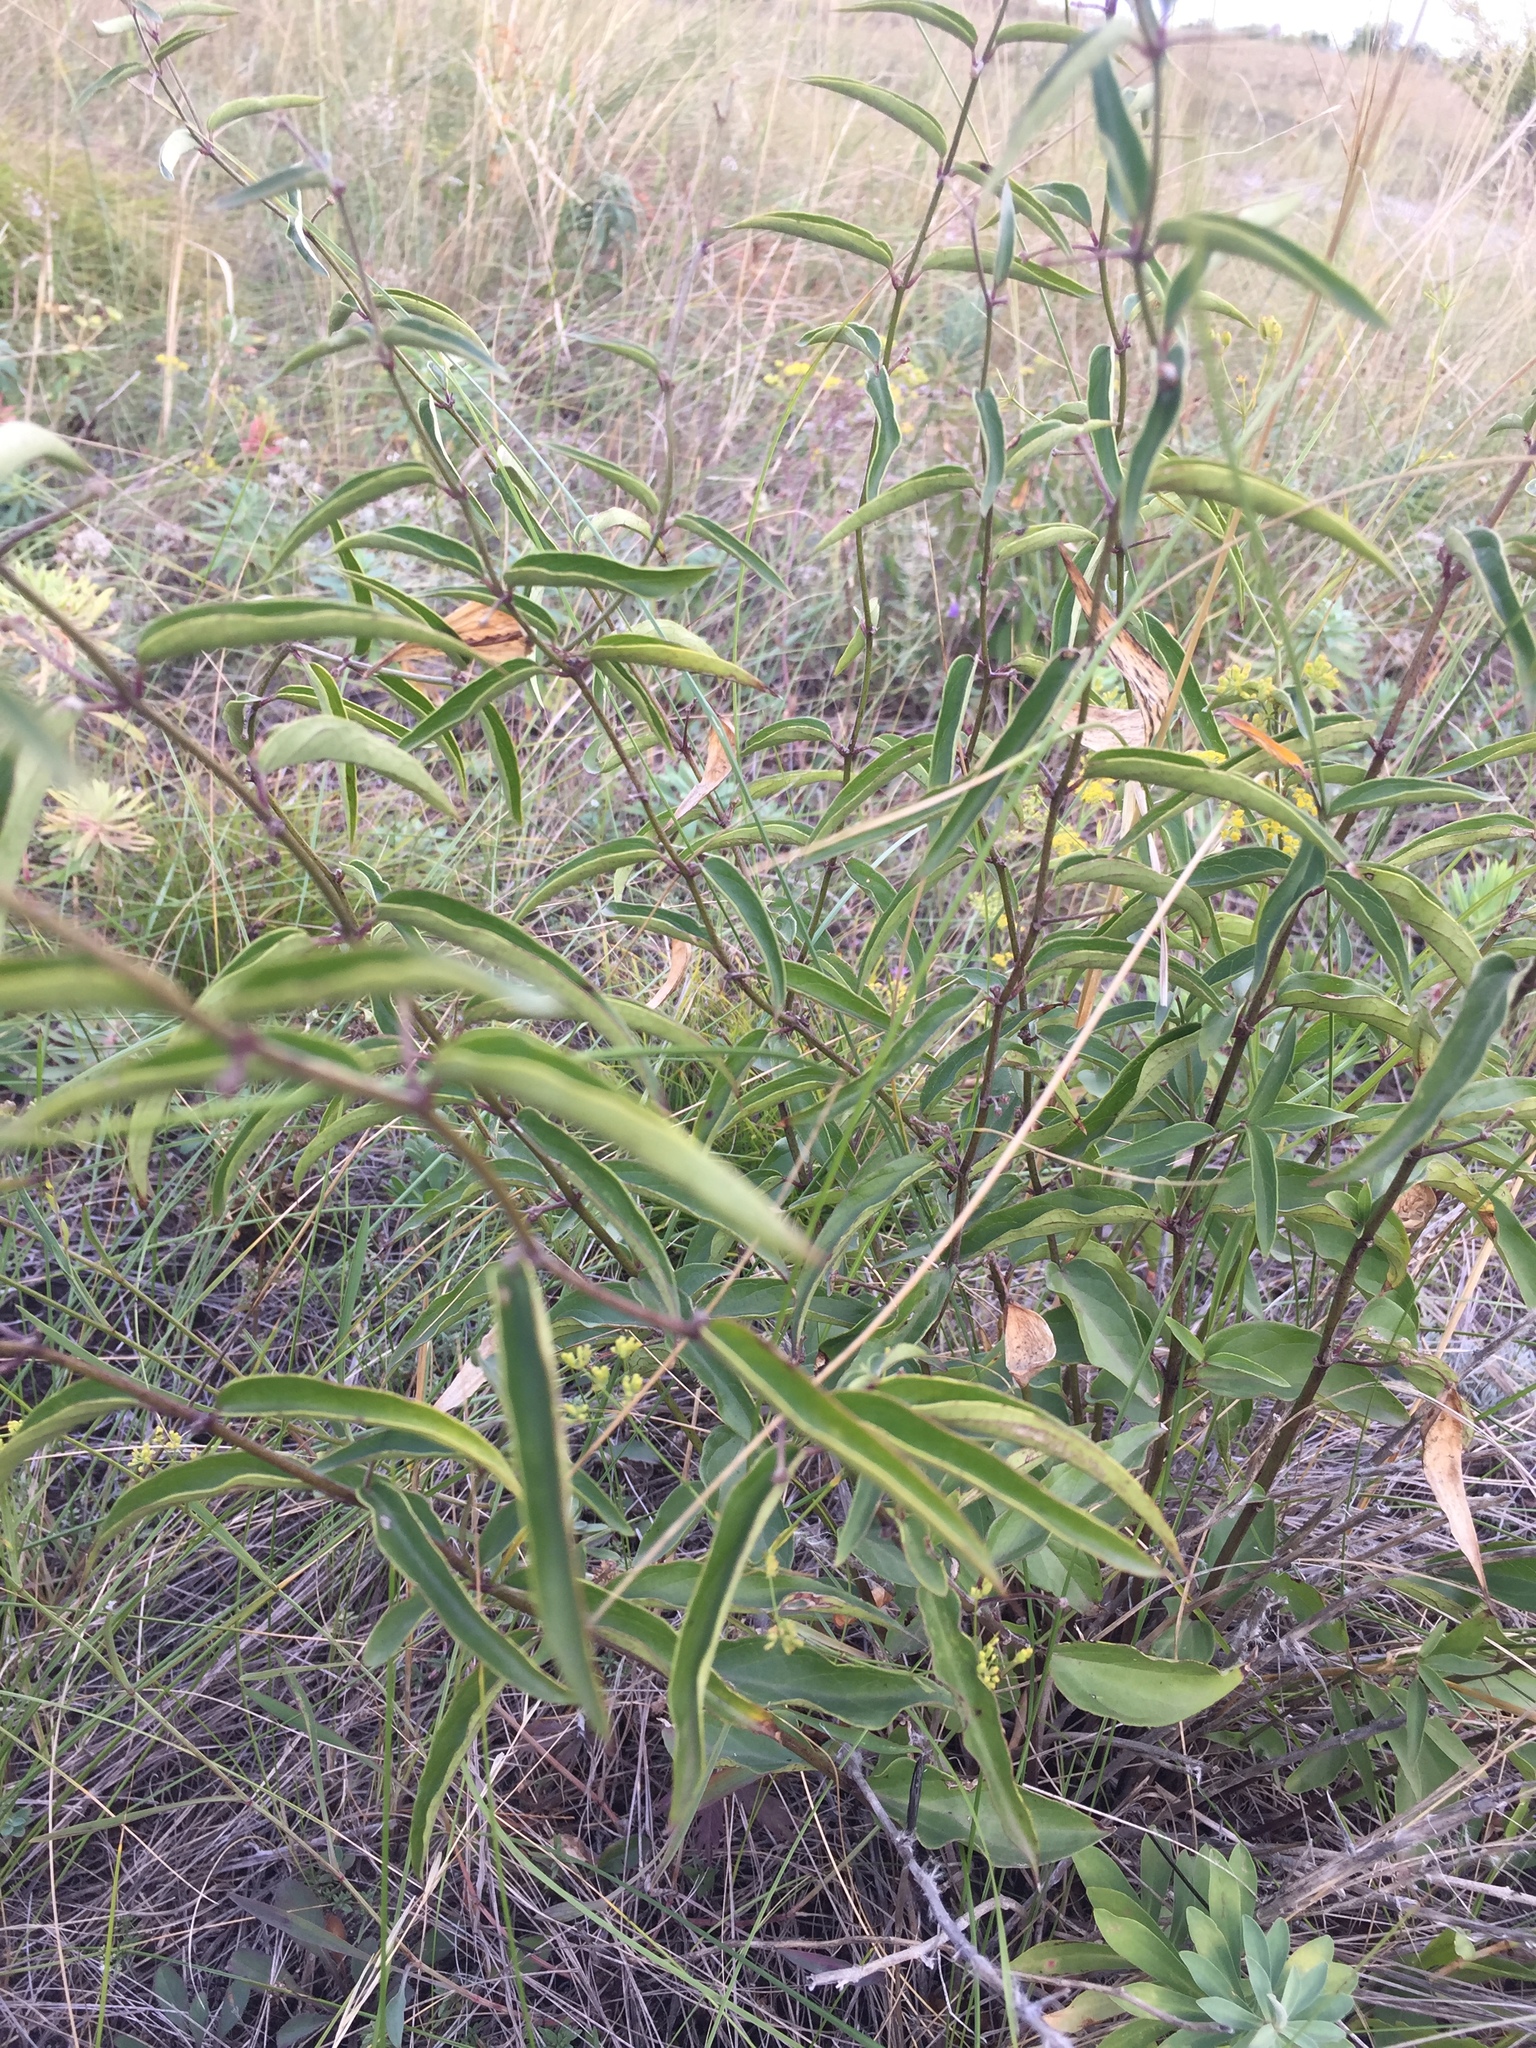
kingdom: Plantae
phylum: Tracheophyta
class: Magnoliopsida
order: Gentianales
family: Apocynaceae
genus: Vincetoxicum
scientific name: Vincetoxicum hirundinaria
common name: White swallowwort
